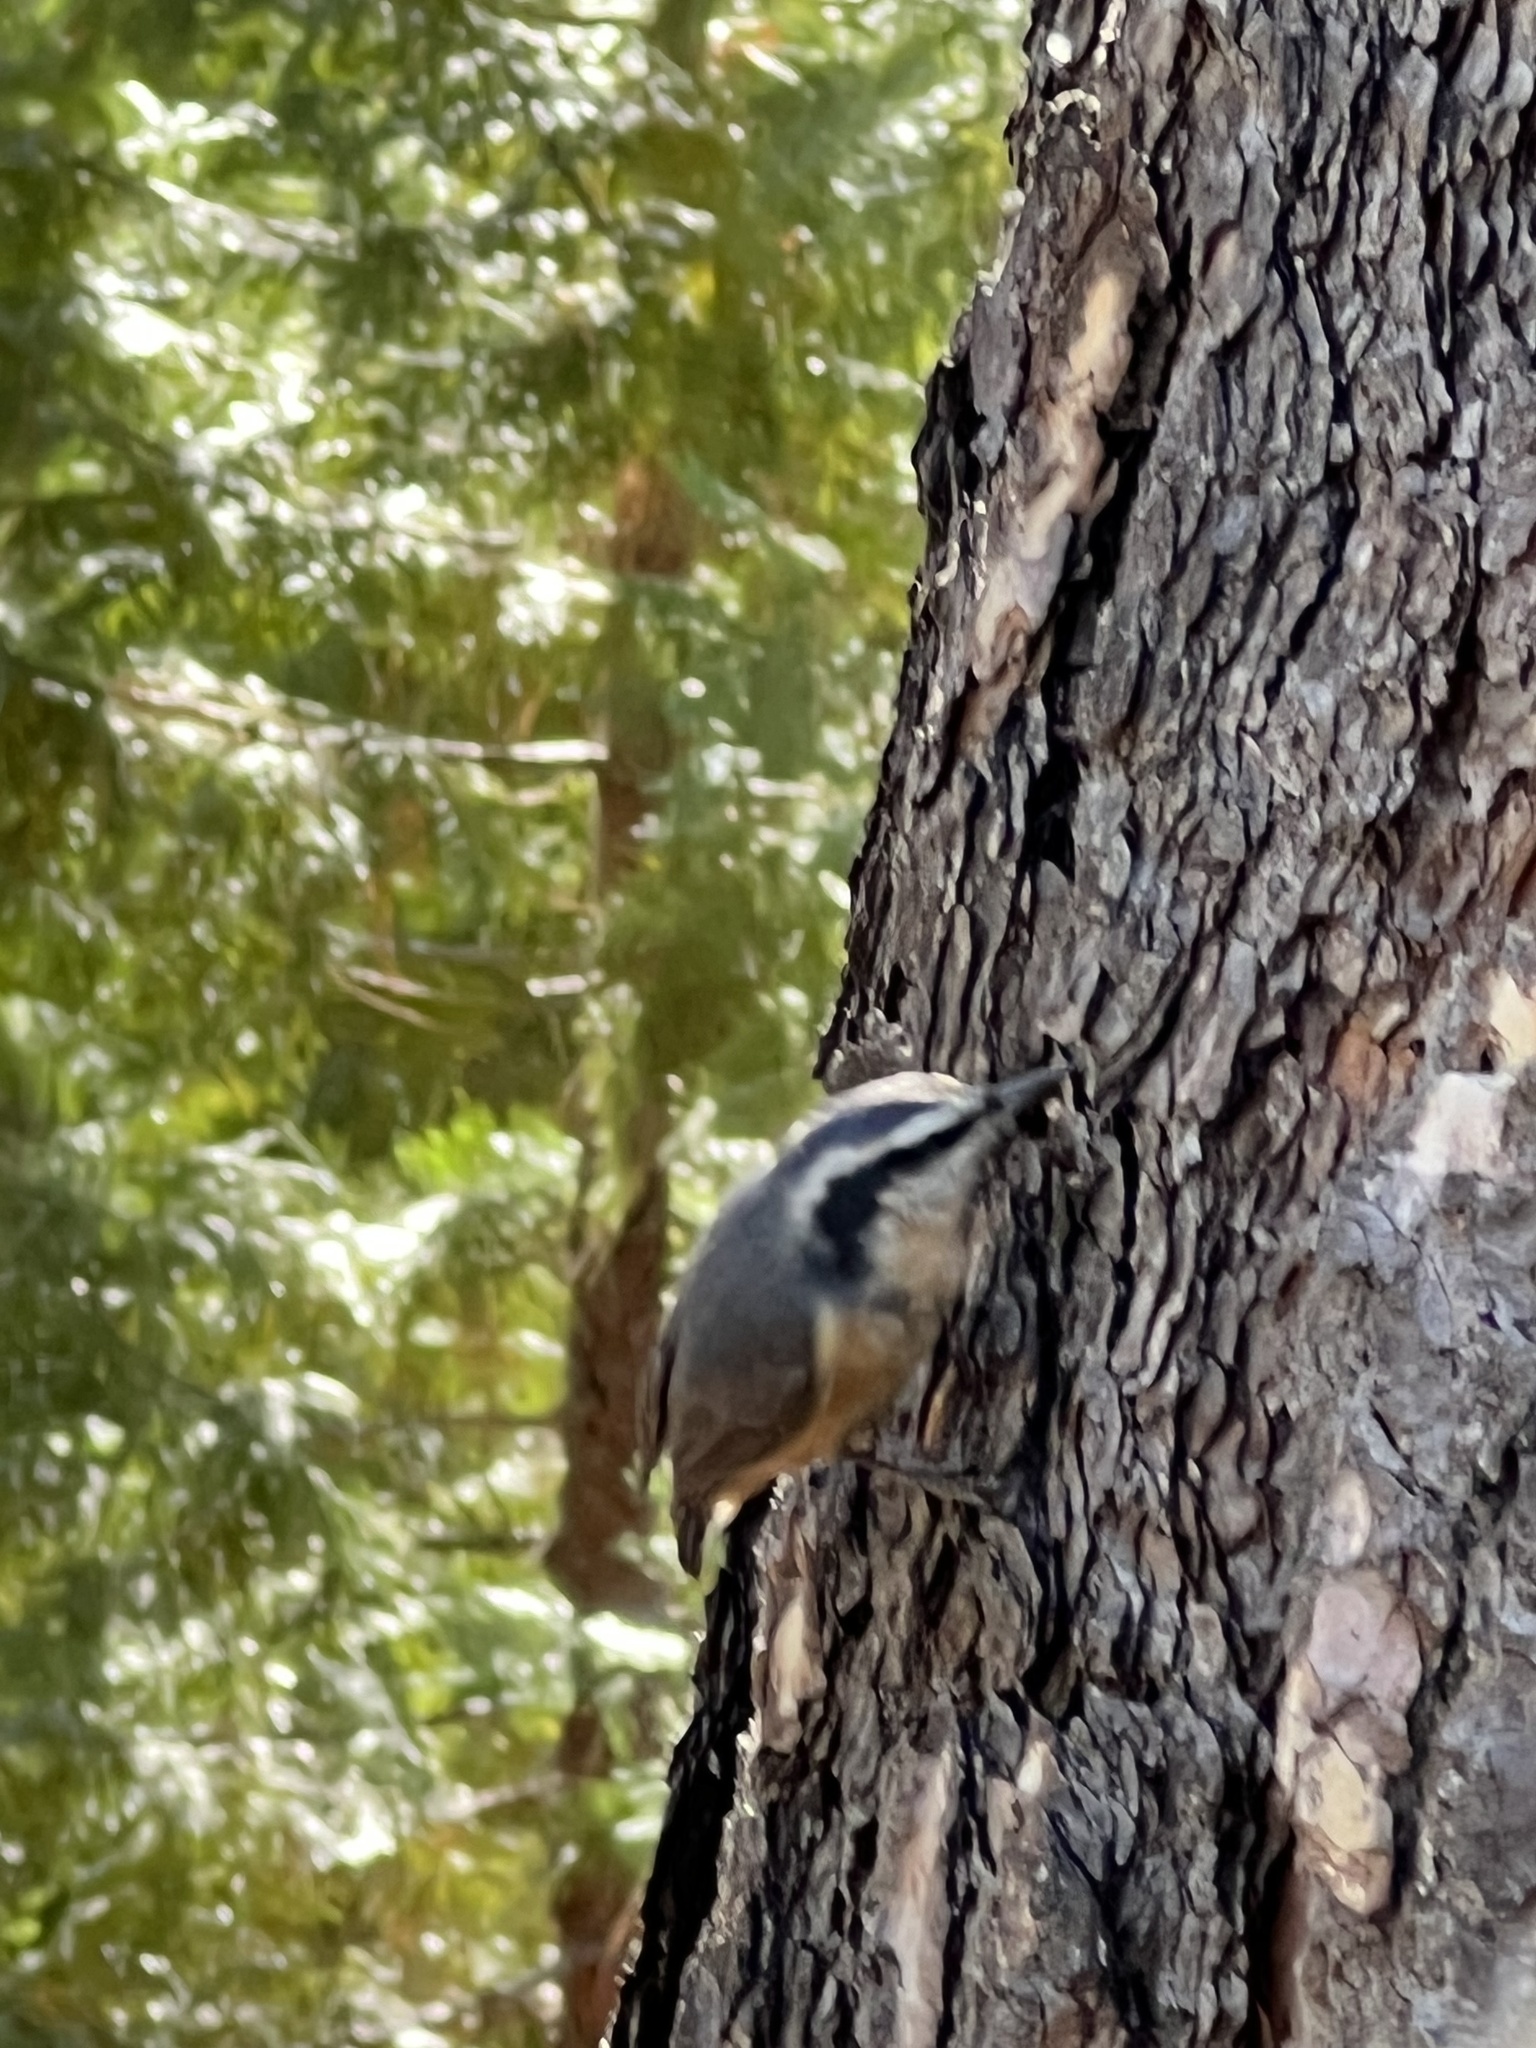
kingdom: Animalia
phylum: Chordata
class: Aves
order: Passeriformes
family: Sittidae
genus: Sitta
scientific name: Sitta canadensis
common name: Red-breasted nuthatch
